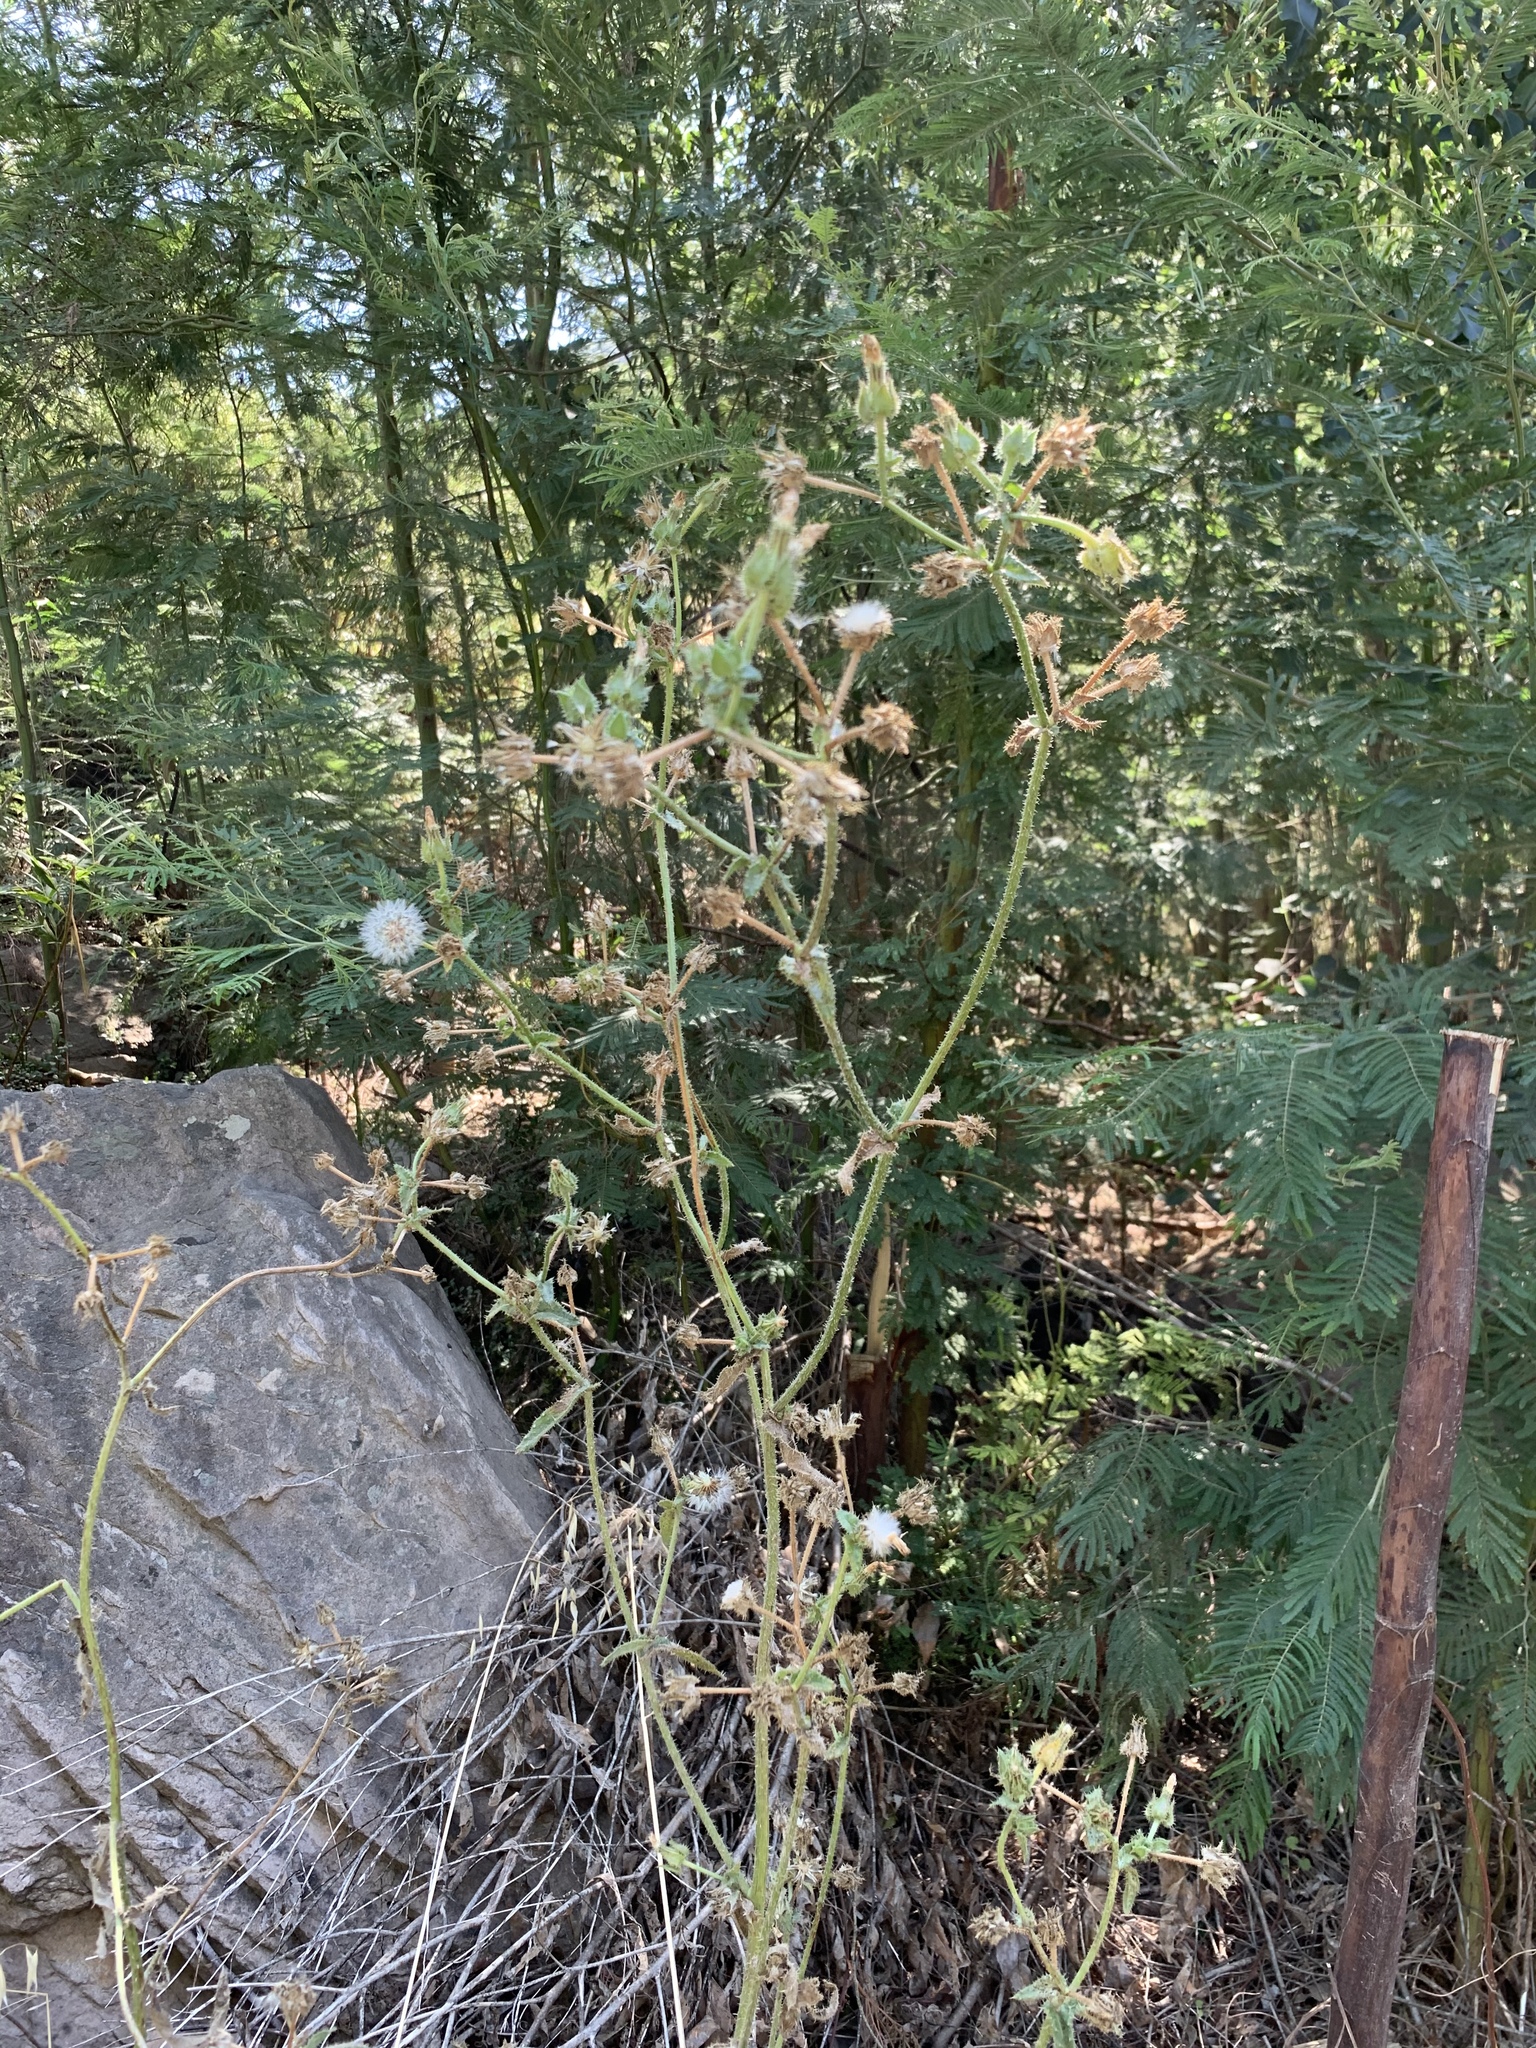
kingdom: Plantae
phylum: Tracheophyta
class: Magnoliopsida
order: Asterales
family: Asteraceae
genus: Helminthotheca
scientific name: Helminthotheca echioides
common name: Ox-tongue
